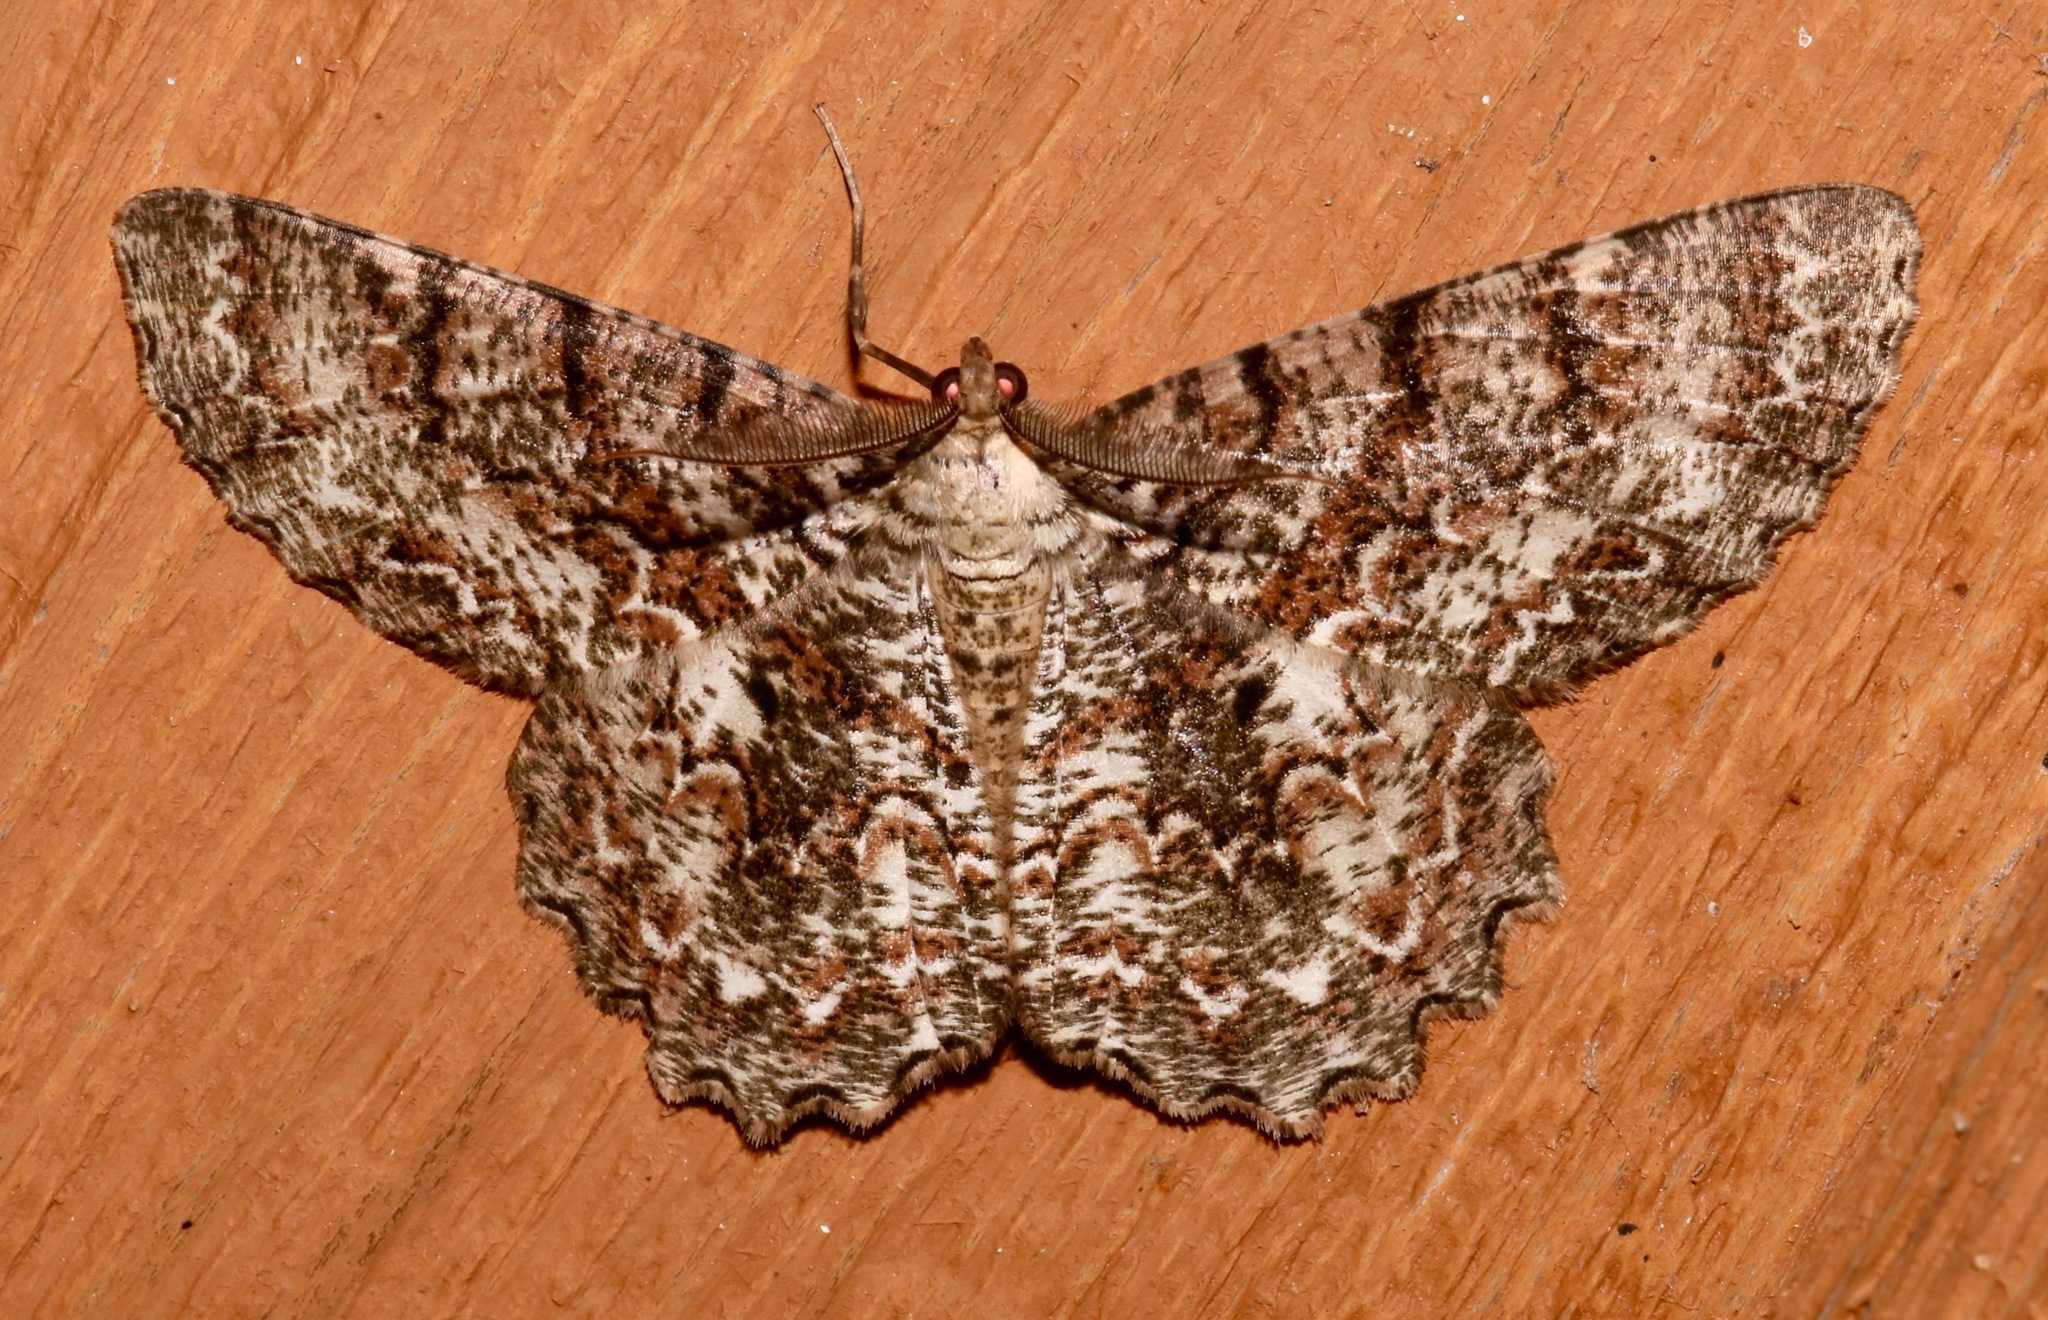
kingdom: Animalia
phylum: Arthropoda
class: Insecta
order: Lepidoptera
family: Geometridae
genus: Epimecis
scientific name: Epimecis hortaria
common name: Tulip-tree beauty
